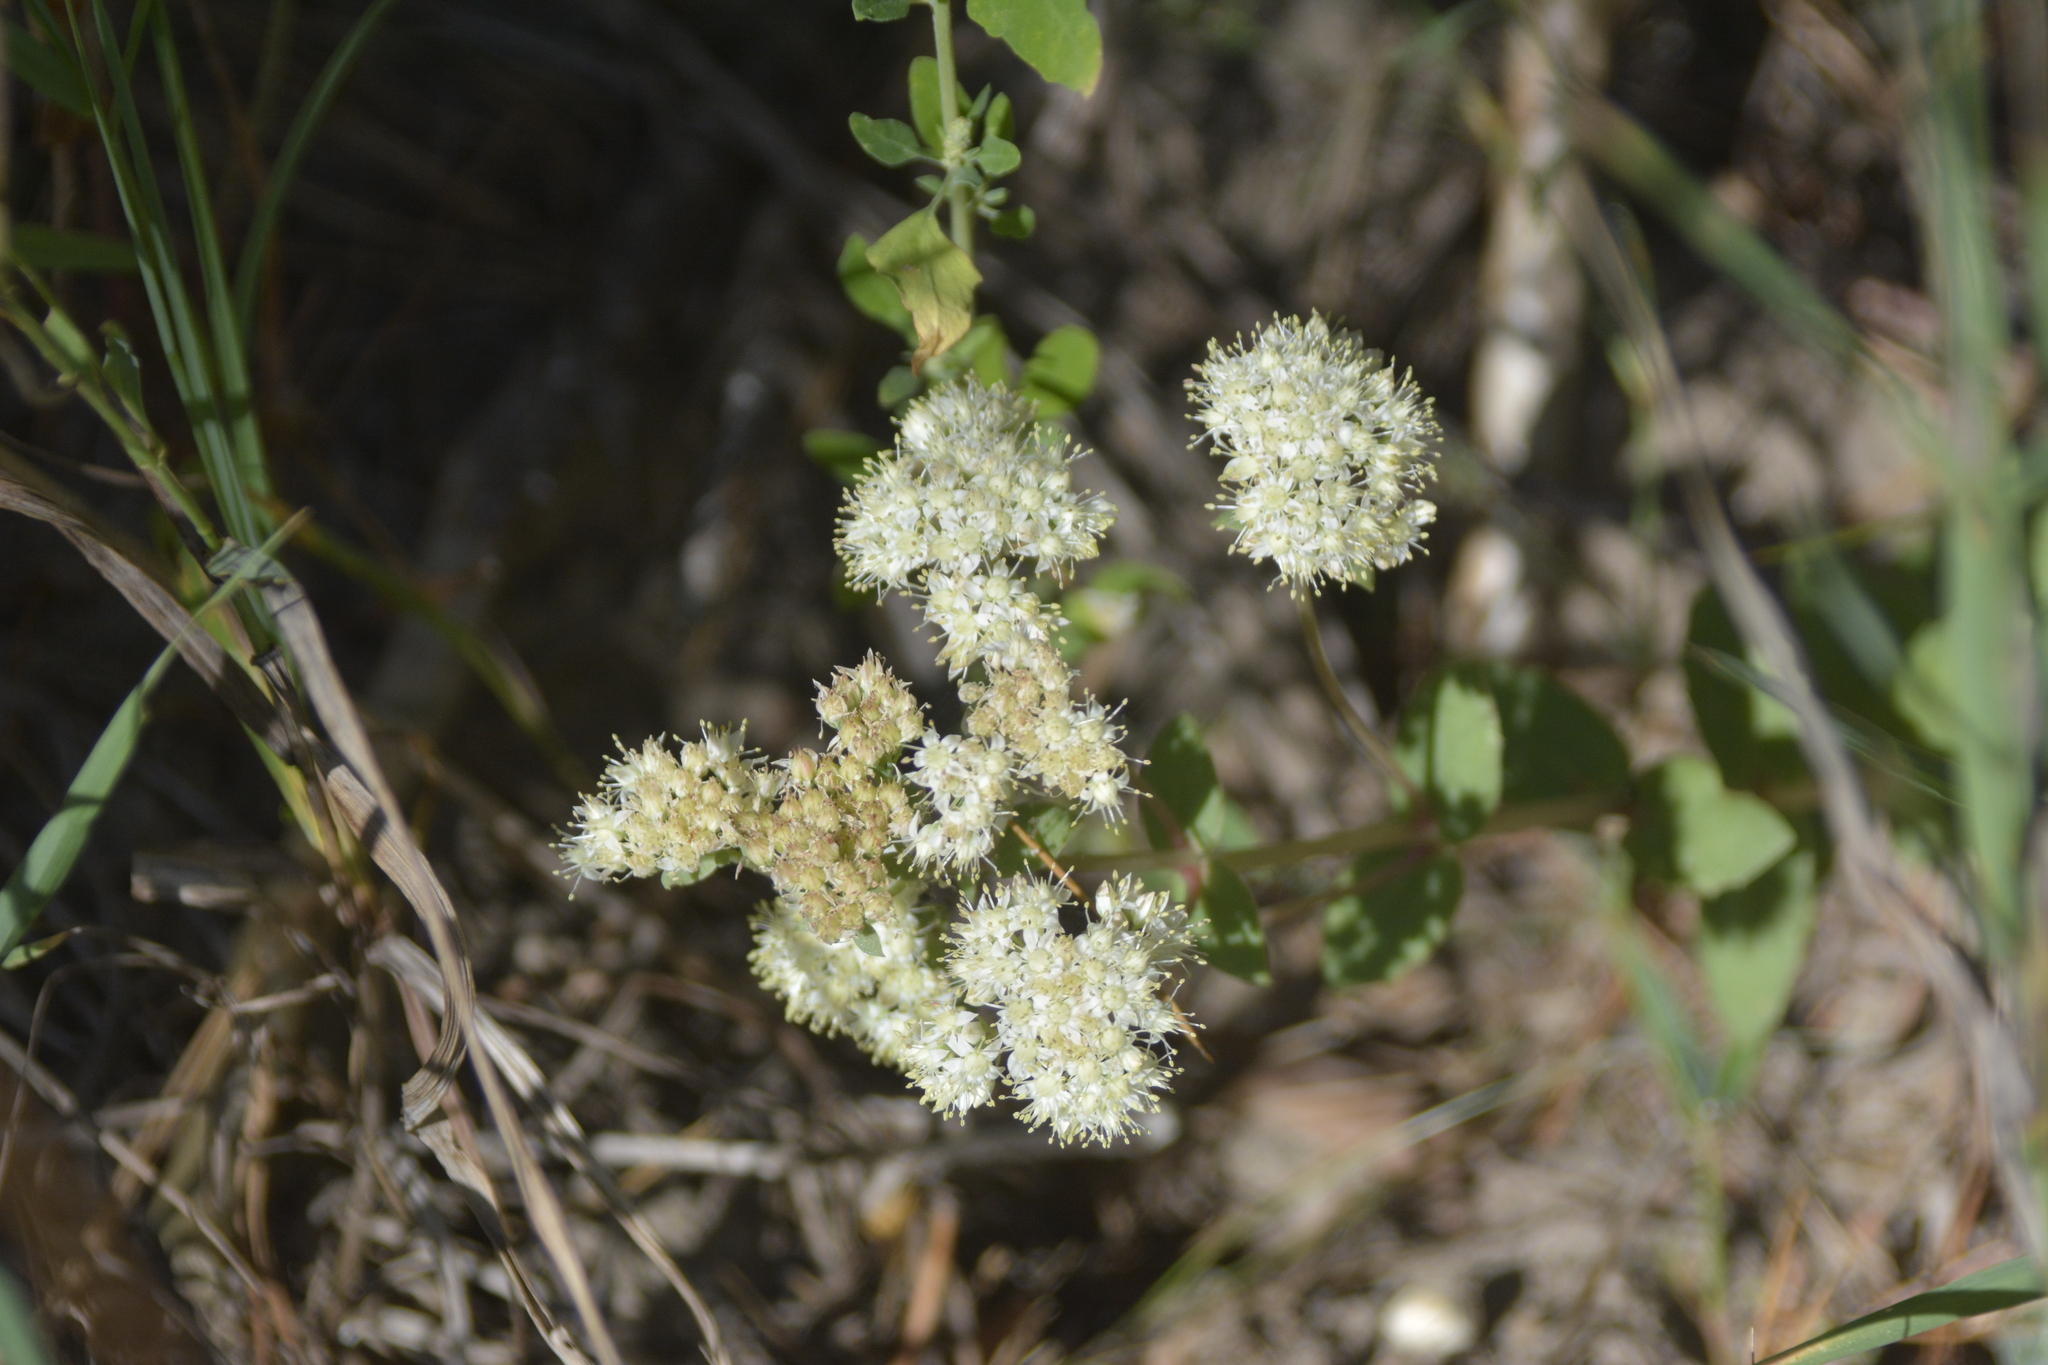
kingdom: Plantae
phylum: Tracheophyta
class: Magnoliopsida
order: Saxifragales
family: Crassulaceae
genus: Hylotelephium
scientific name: Hylotelephium maximum
